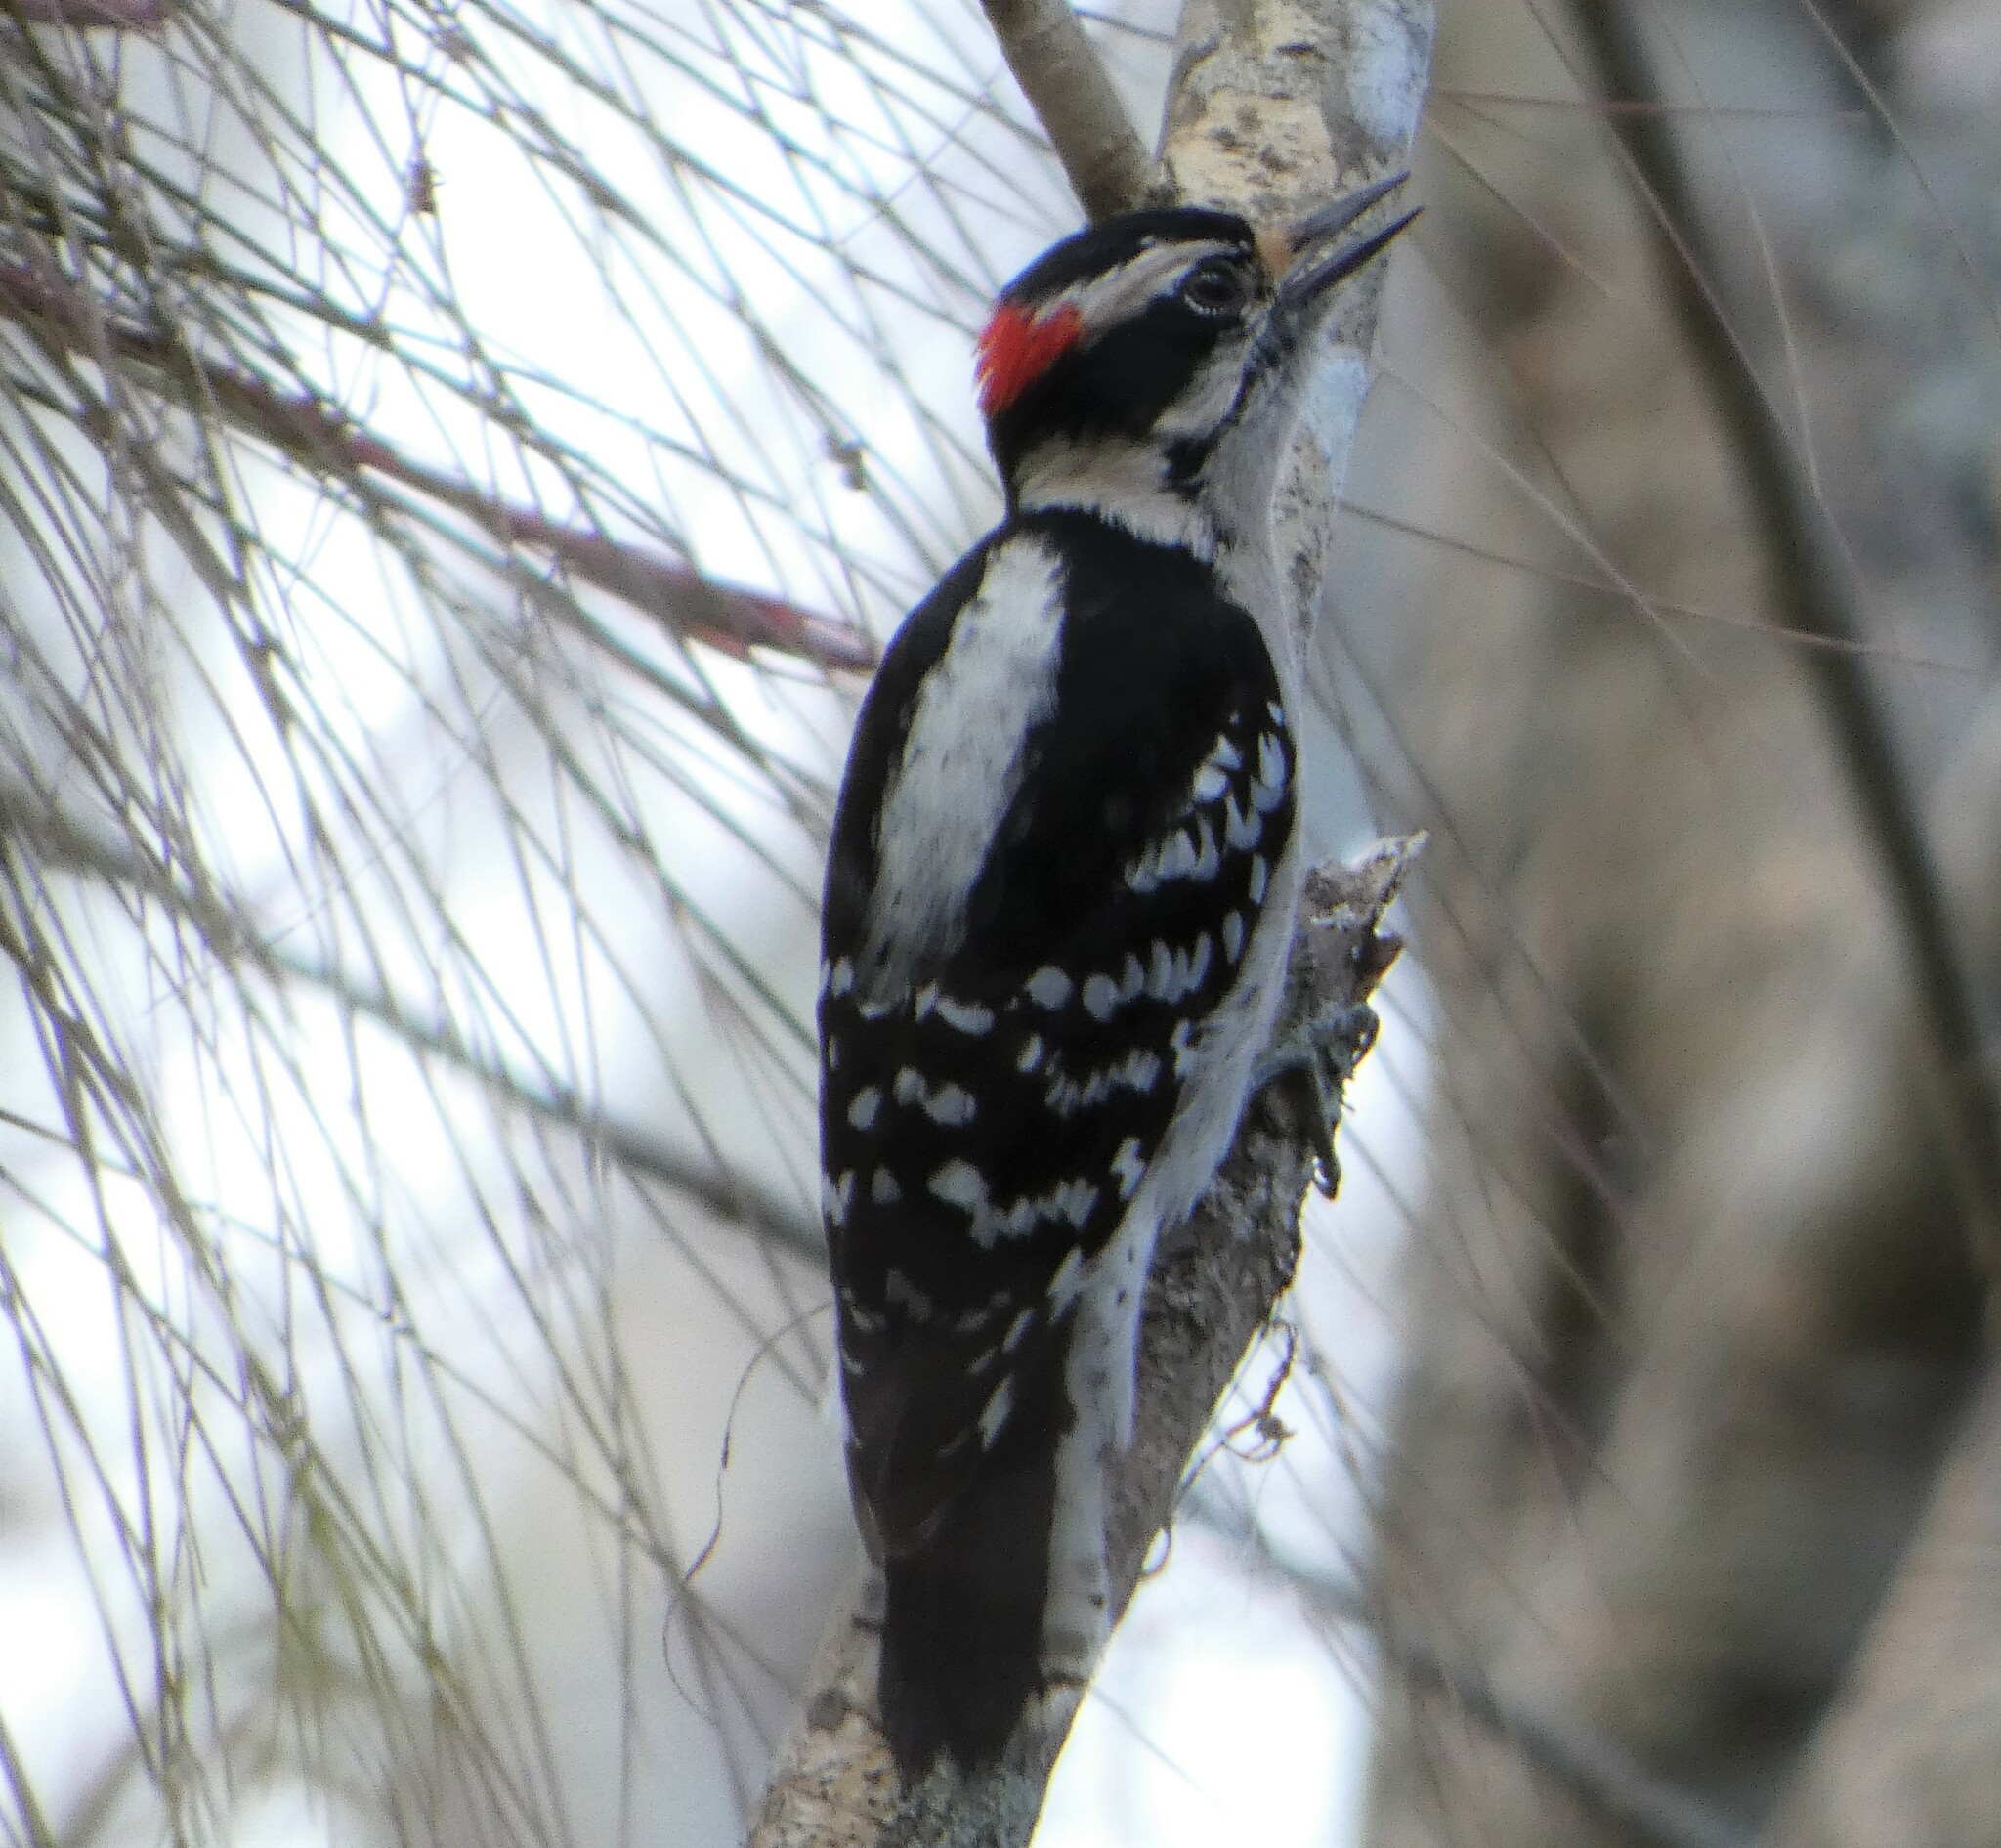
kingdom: Animalia
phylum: Chordata
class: Aves
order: Piciformes
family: Picidae
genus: Dryobates
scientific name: Dryobates pubescens
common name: Downy woodpecker
